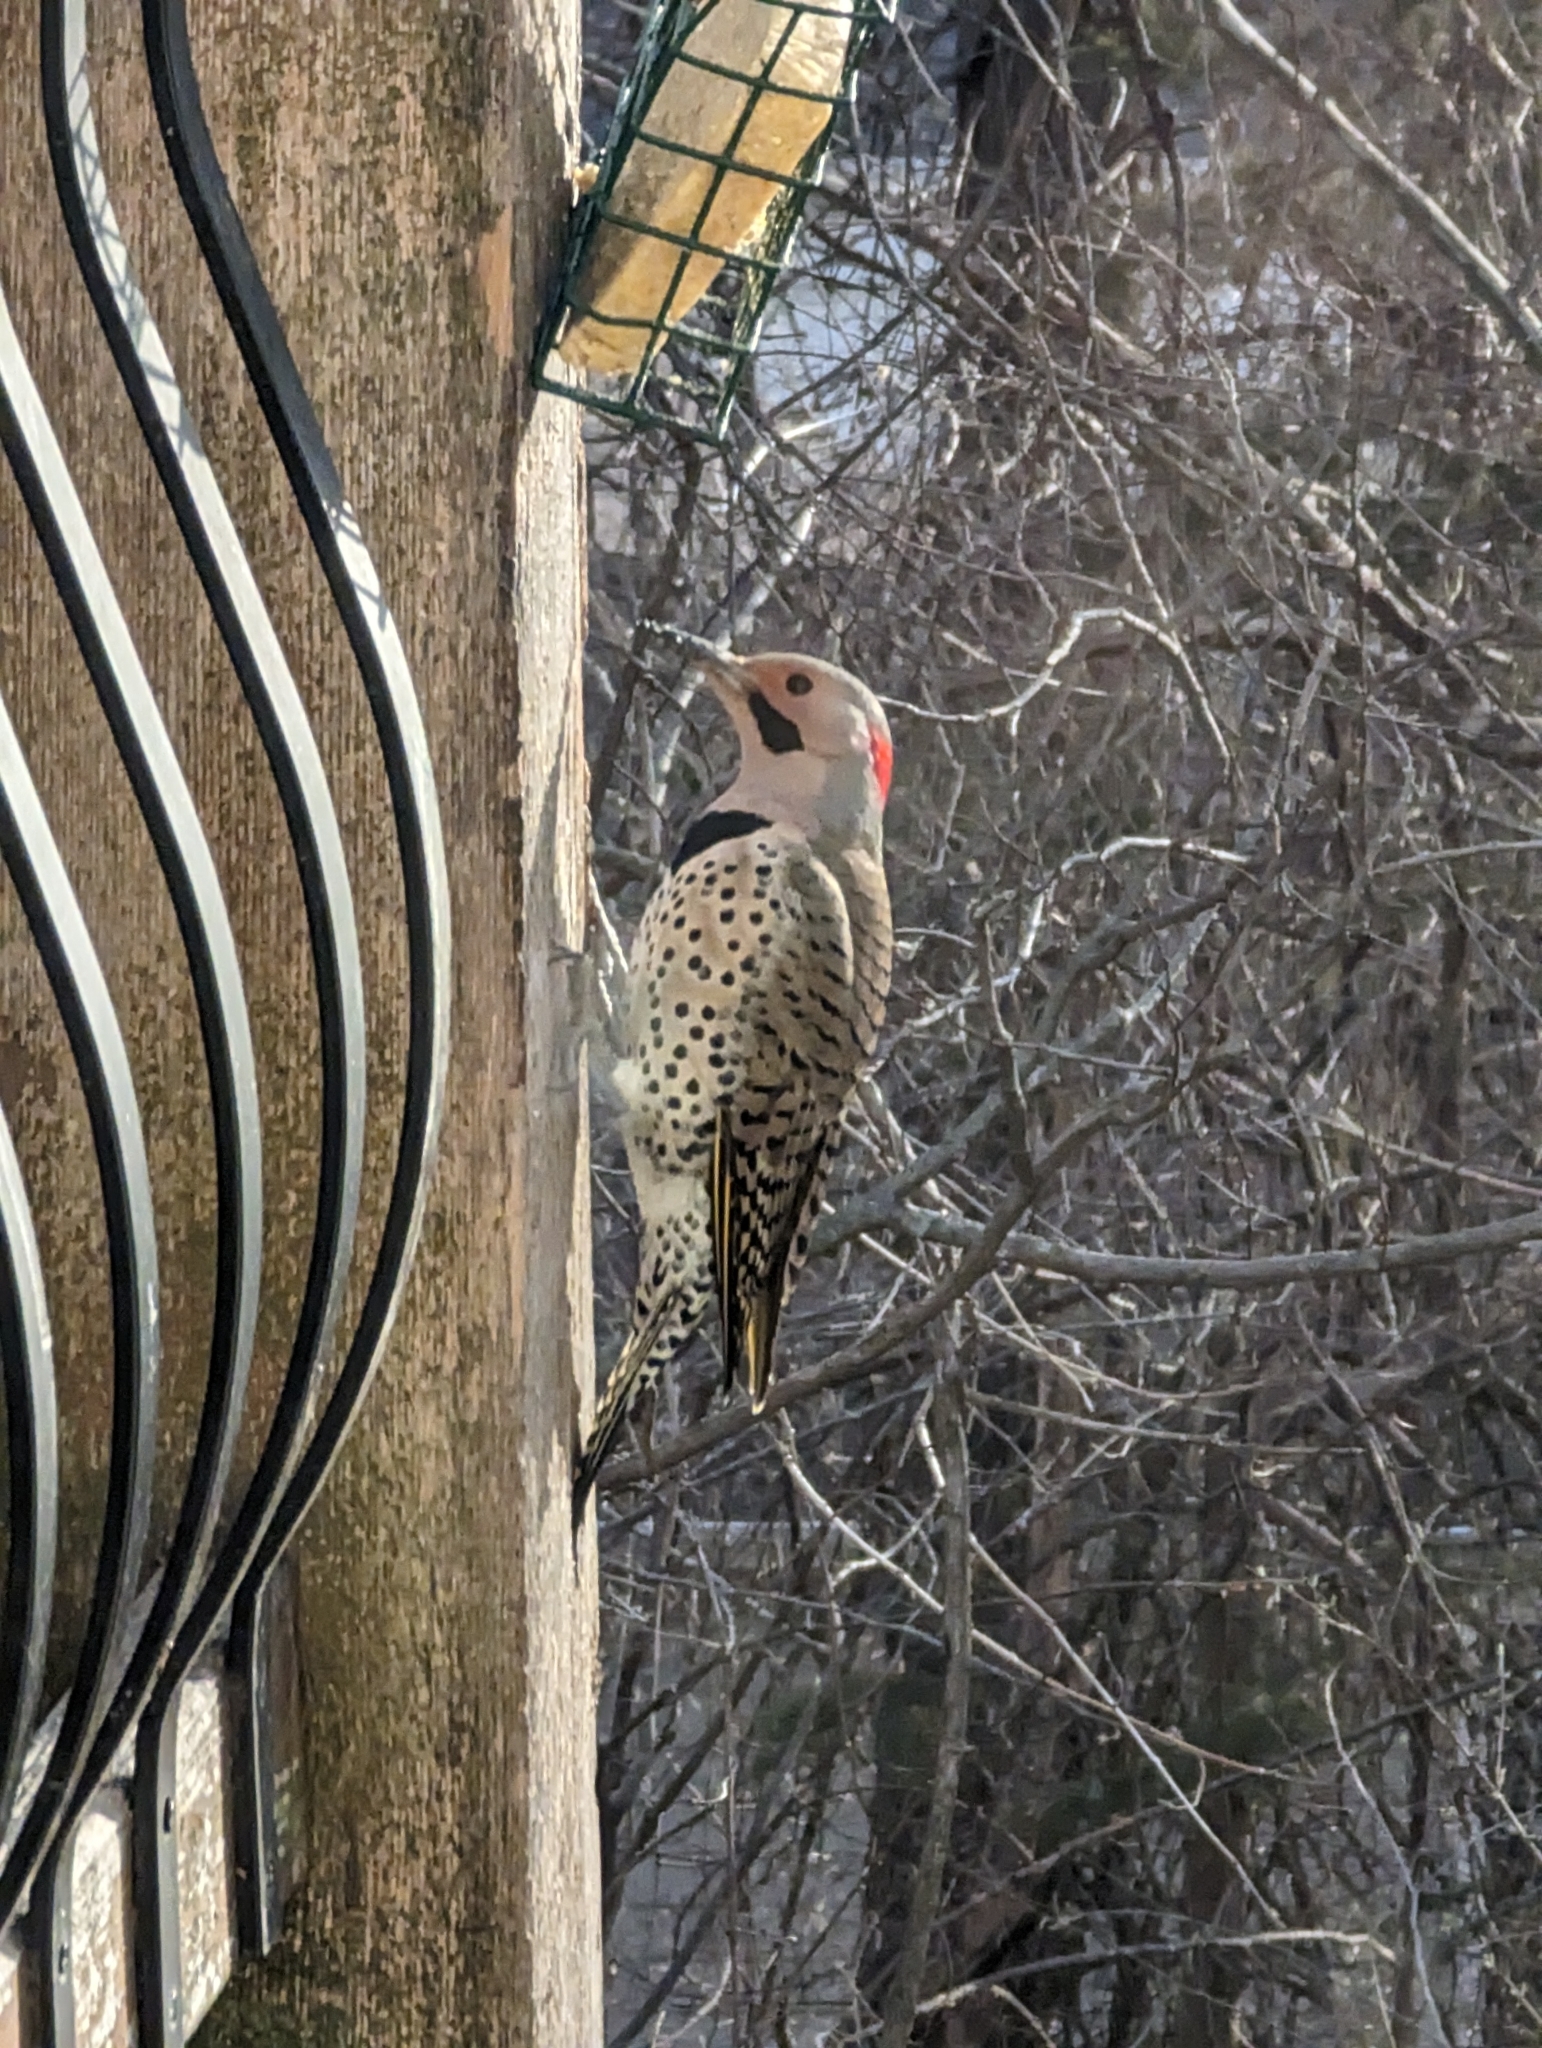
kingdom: Animalia
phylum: Chordata
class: Aves
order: Piciformes
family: Picidae
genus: Colaptes
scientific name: Colaptes auratus
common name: Northern flicker
